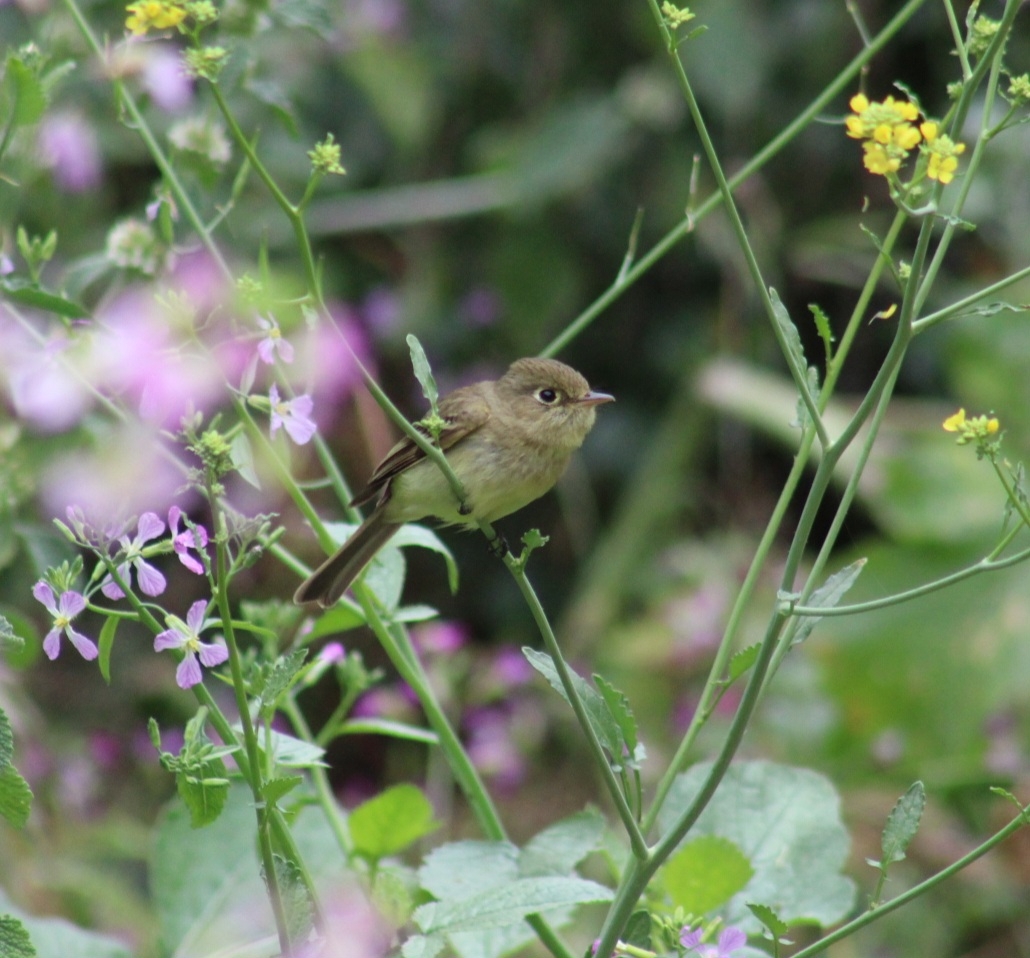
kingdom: Animalia
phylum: Chordata
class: Aves
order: Passeriformes
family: Tyrannidae
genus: Empidonax
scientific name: Empidonax difficilis
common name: Pacific-slope flycatcher
